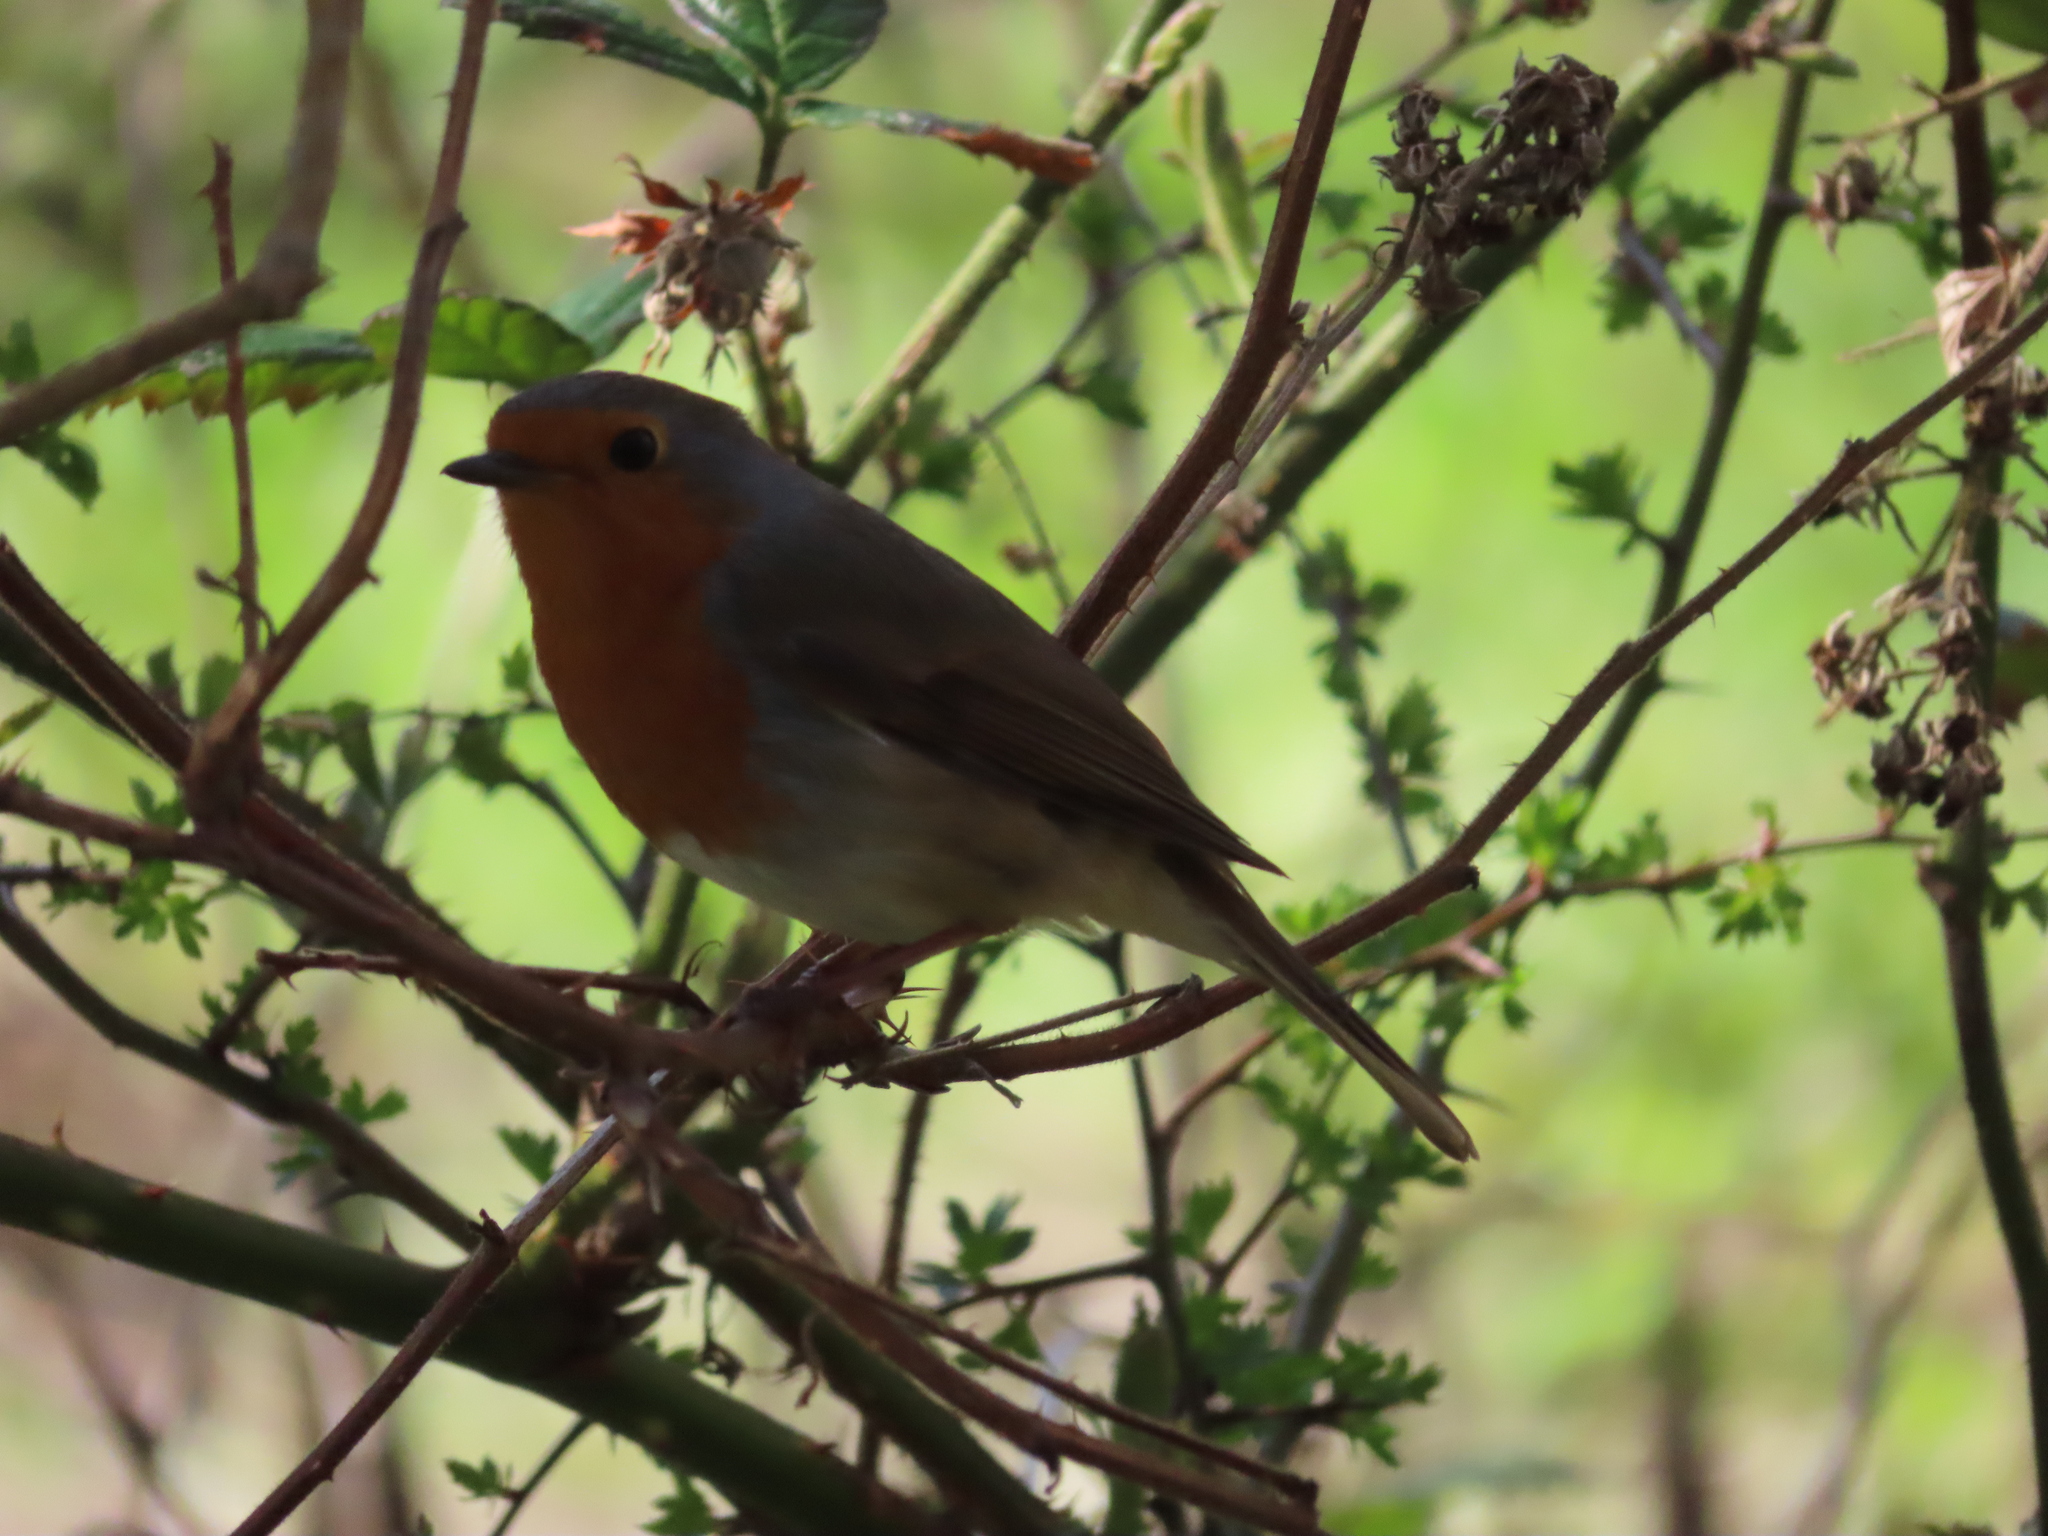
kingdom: Animalia
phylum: Chordata
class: Aves
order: Passeriformes
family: Muscicapidae
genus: Erithacus
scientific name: Erithacus rubecula
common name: European robin
